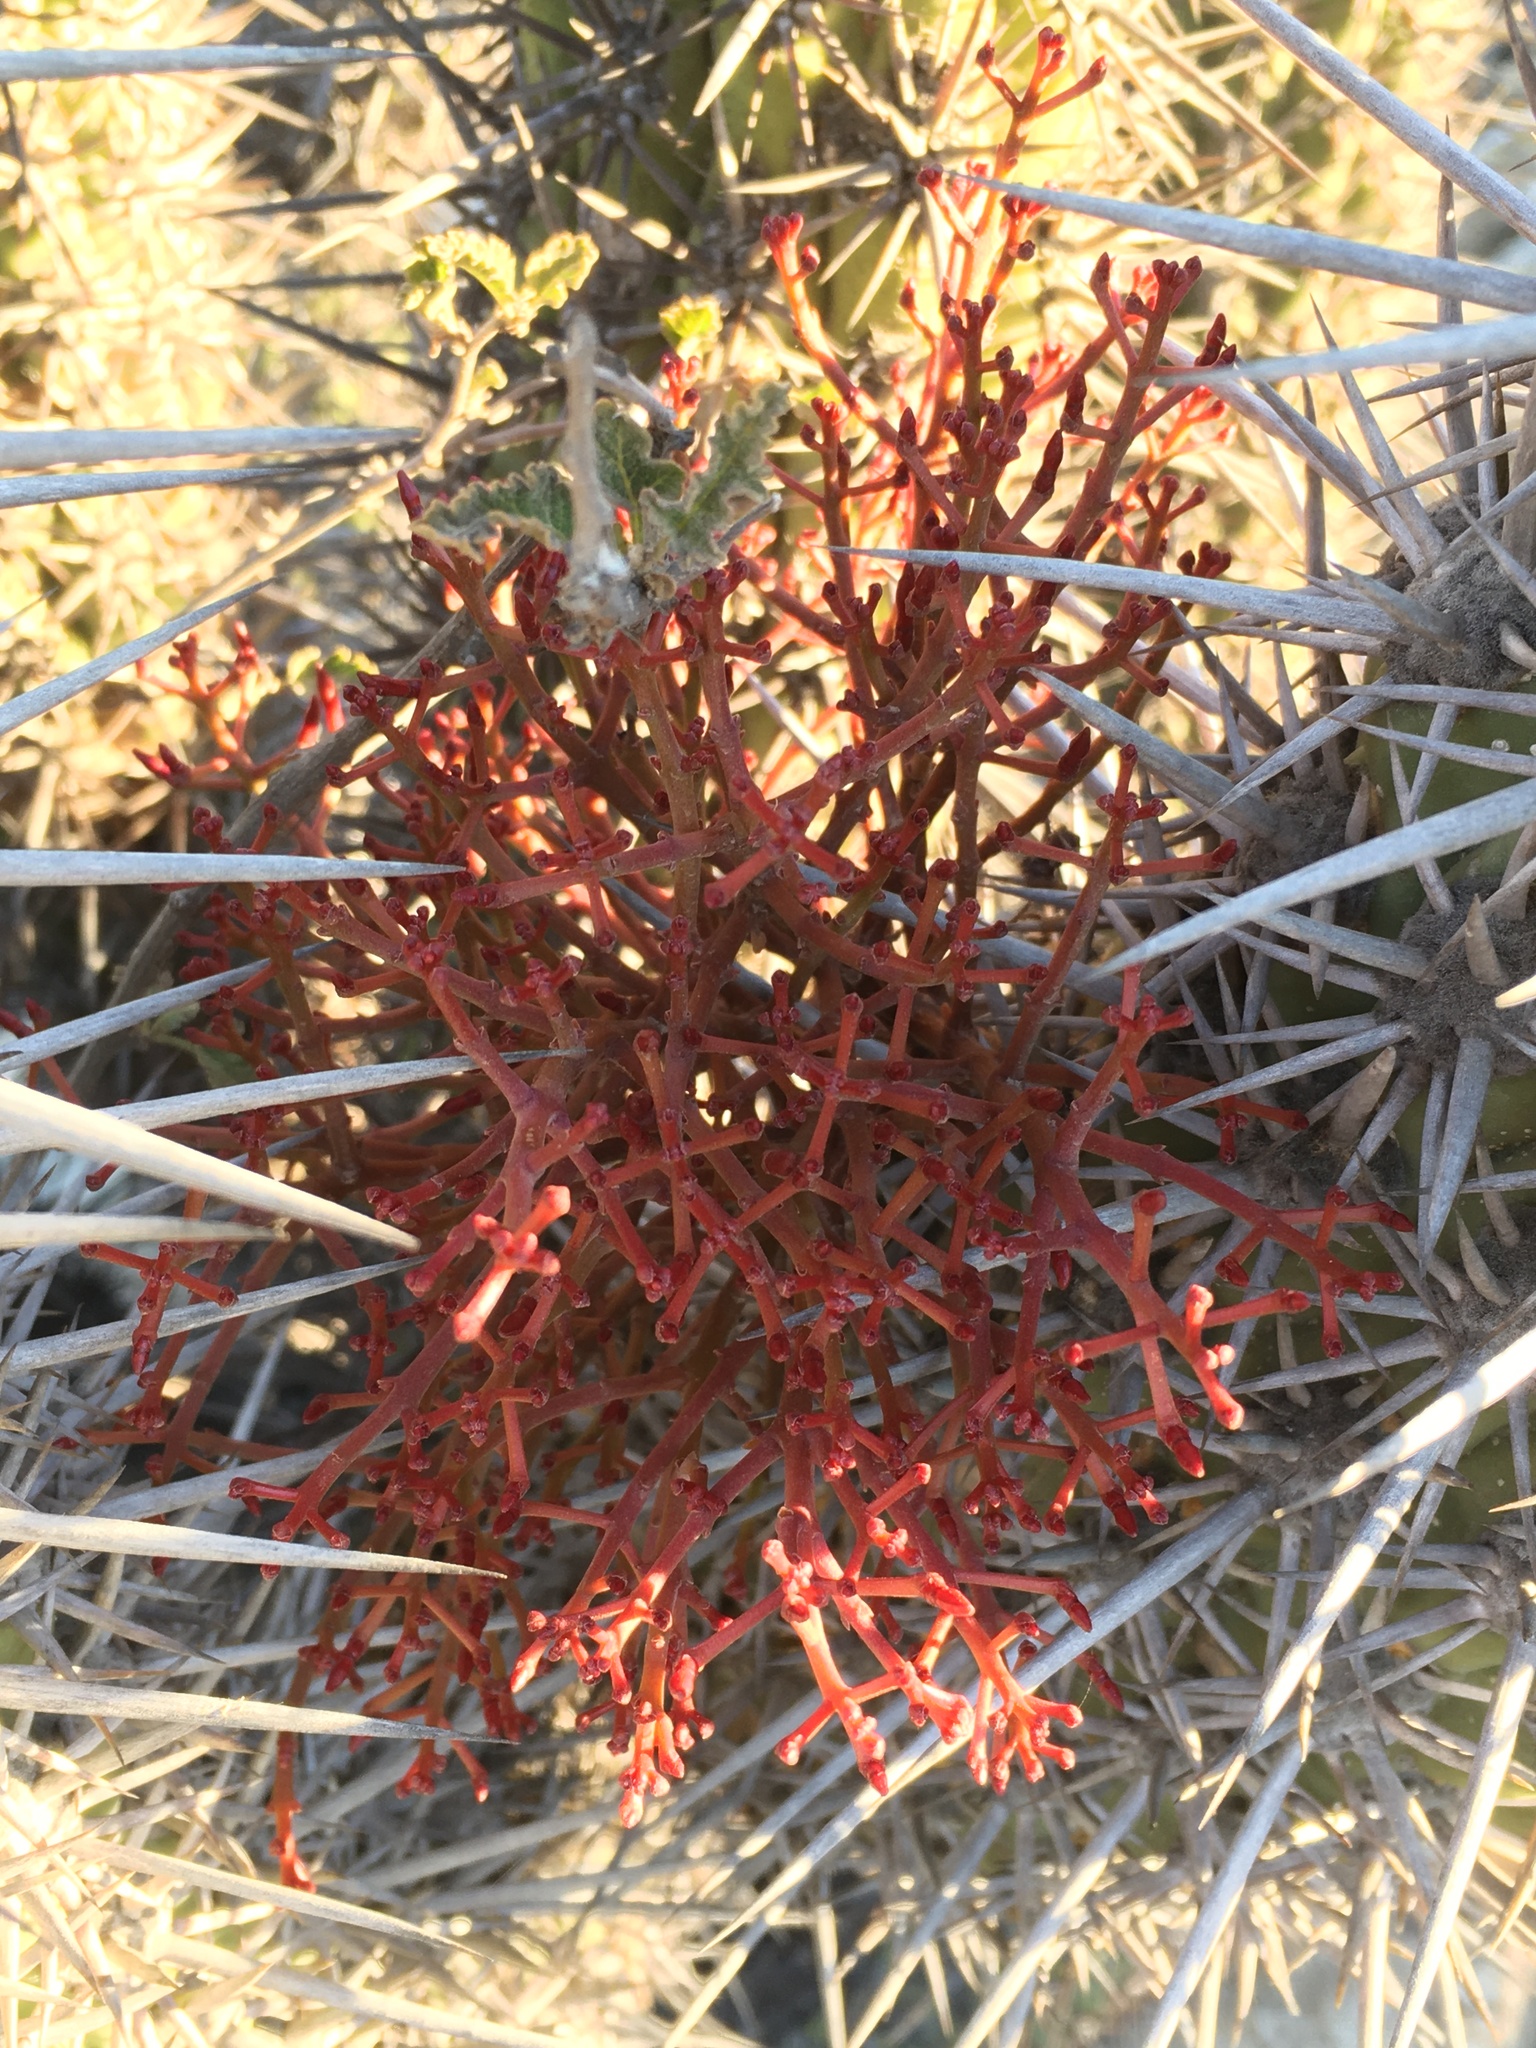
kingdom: Plantae
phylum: Tracheophyta
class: Magnoliopsida
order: Santalales
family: Loranthaceae
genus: Tristerix
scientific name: Tristerix aphyllus
